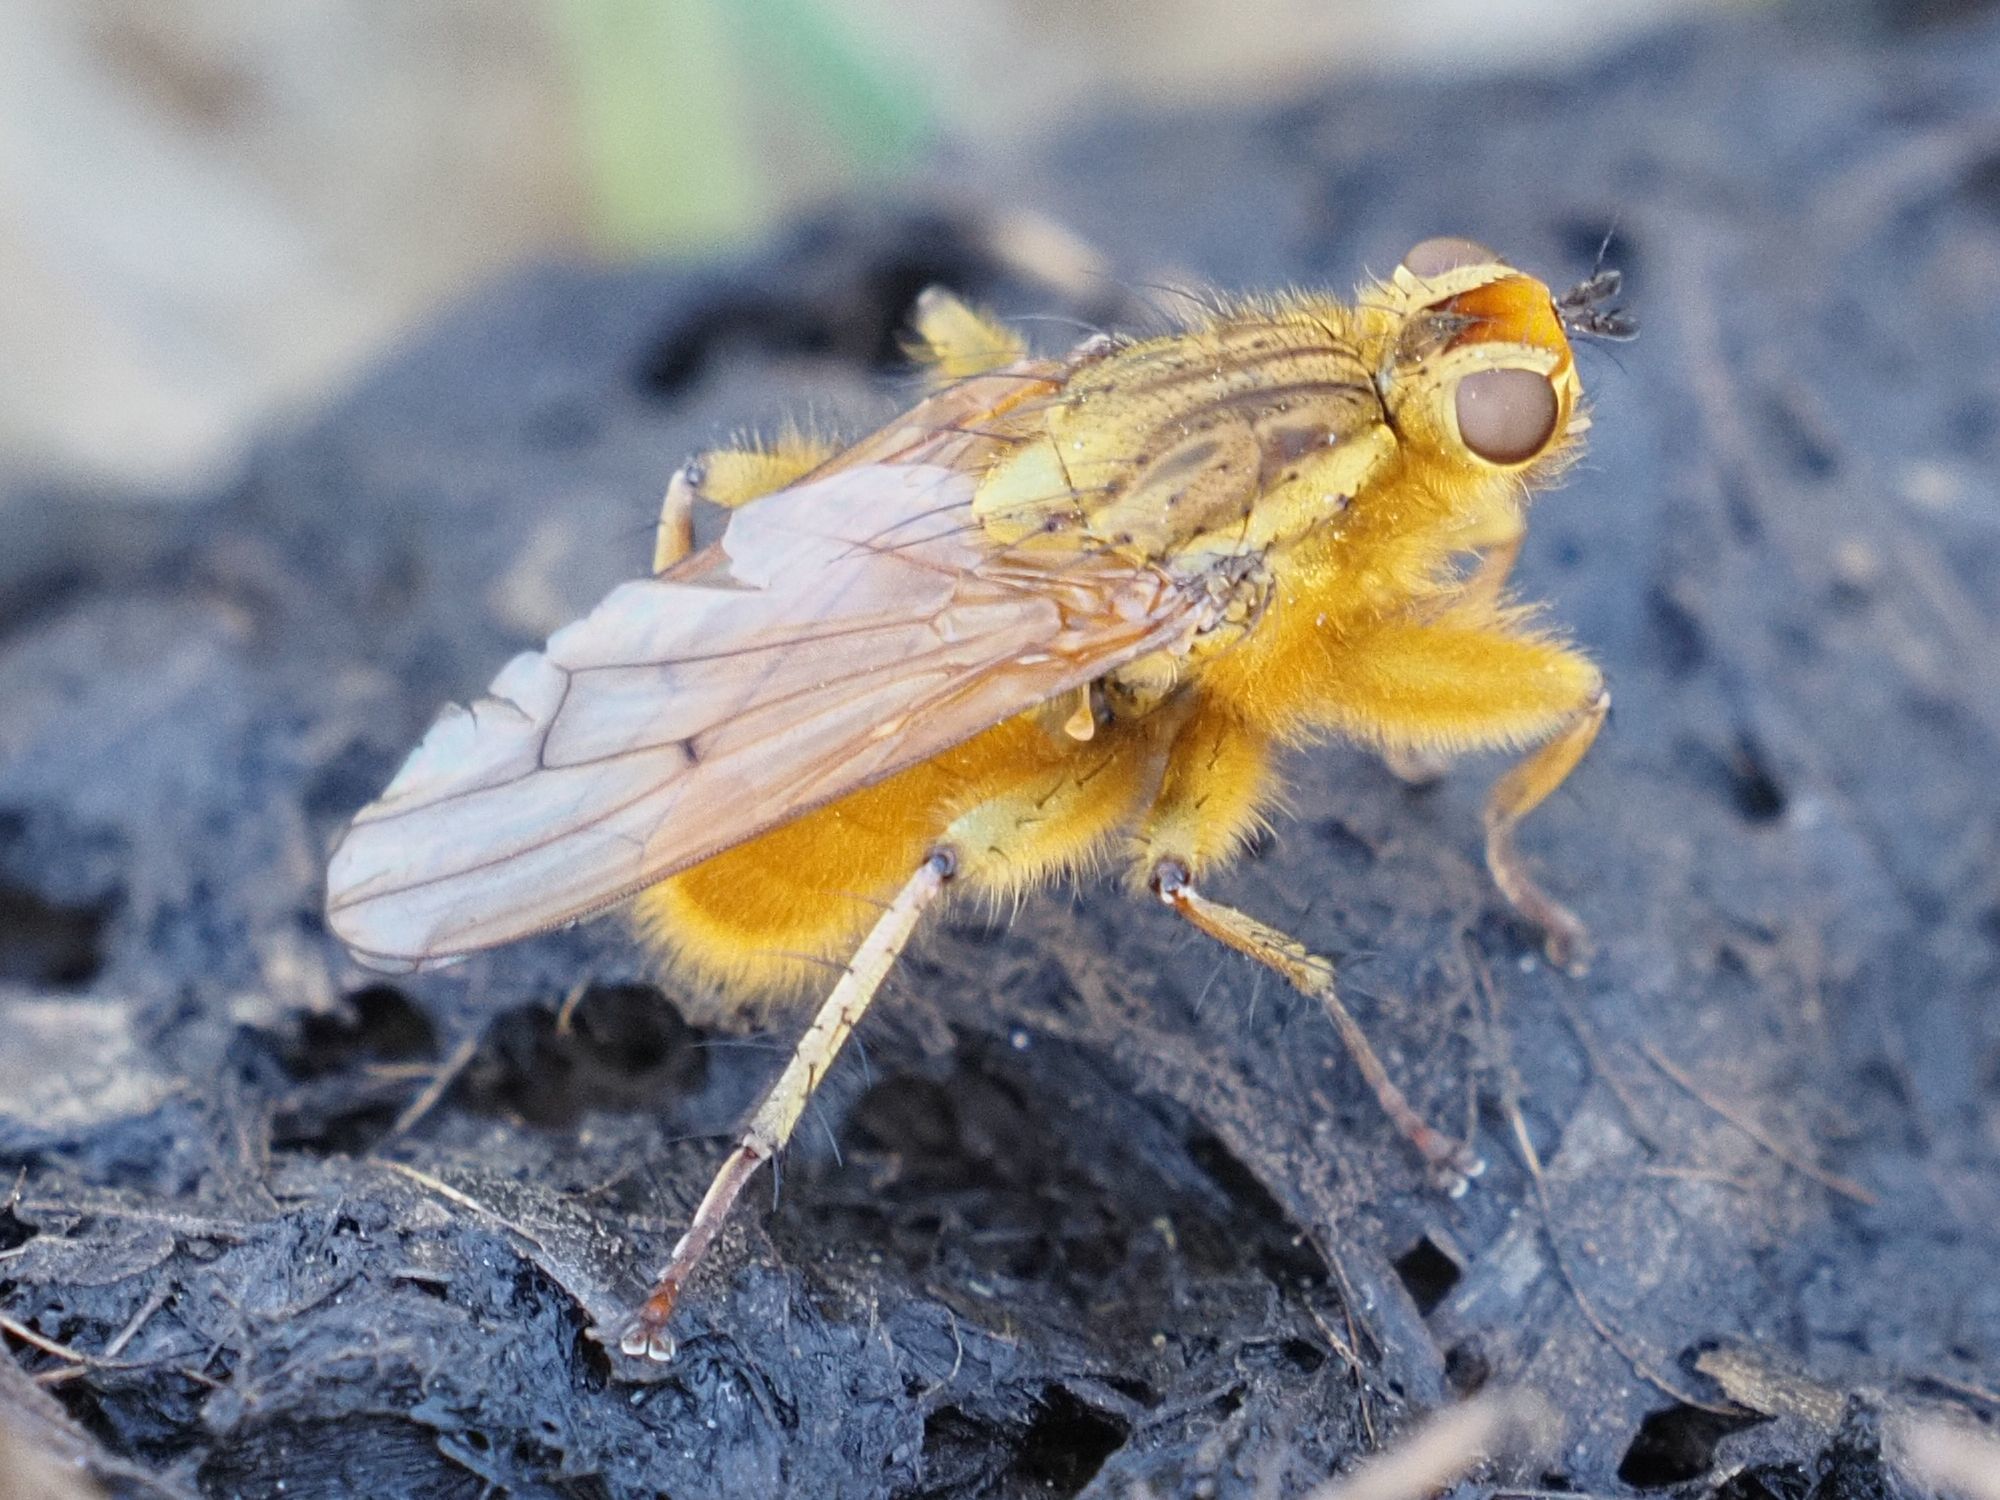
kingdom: Animalia
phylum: Arthropoda
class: Insecta
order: Diptera
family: Scathophagidae
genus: Scathophaga
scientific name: Scathophaga stercoraria
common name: Yellow dung fly
